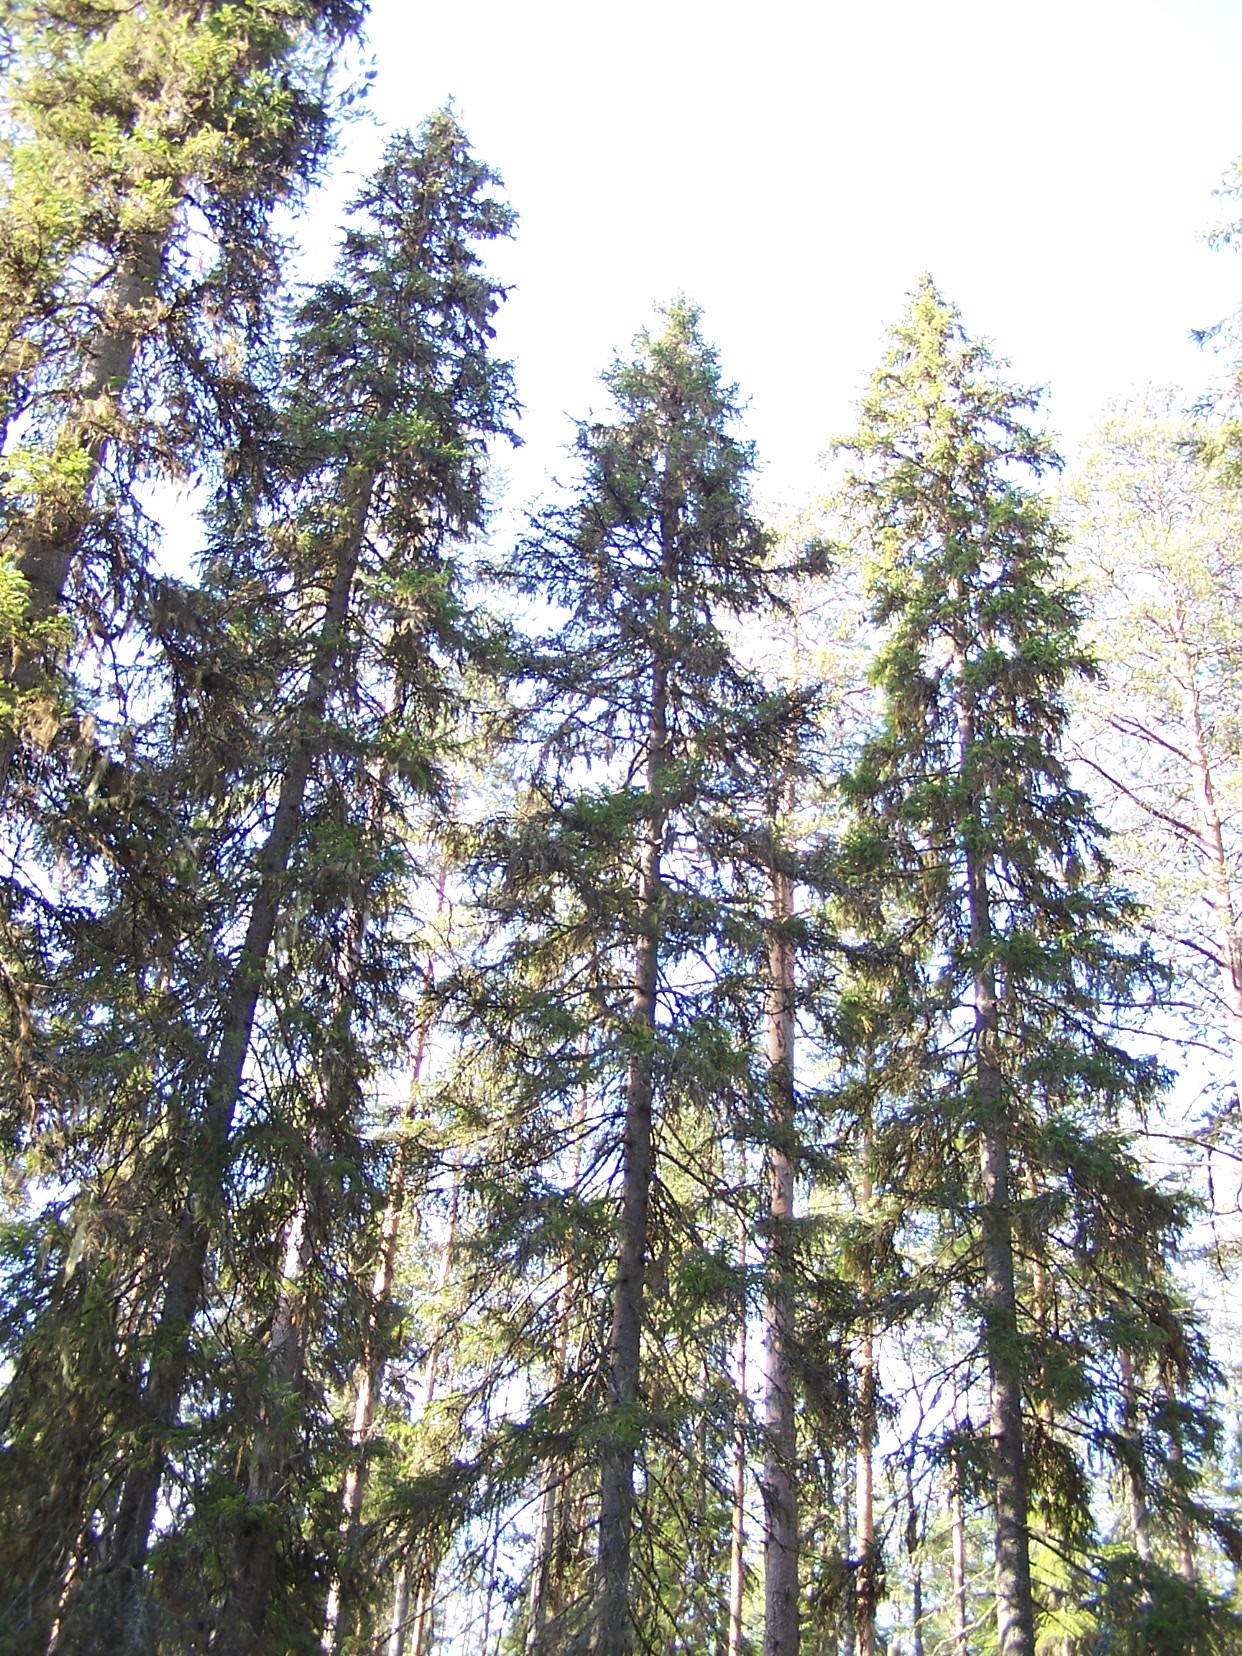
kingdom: Plantae
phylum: Tracheophyta
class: Pinopsida
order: Pinales
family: Pinaceae
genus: Picea
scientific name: Picea abies
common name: Norway spruce
